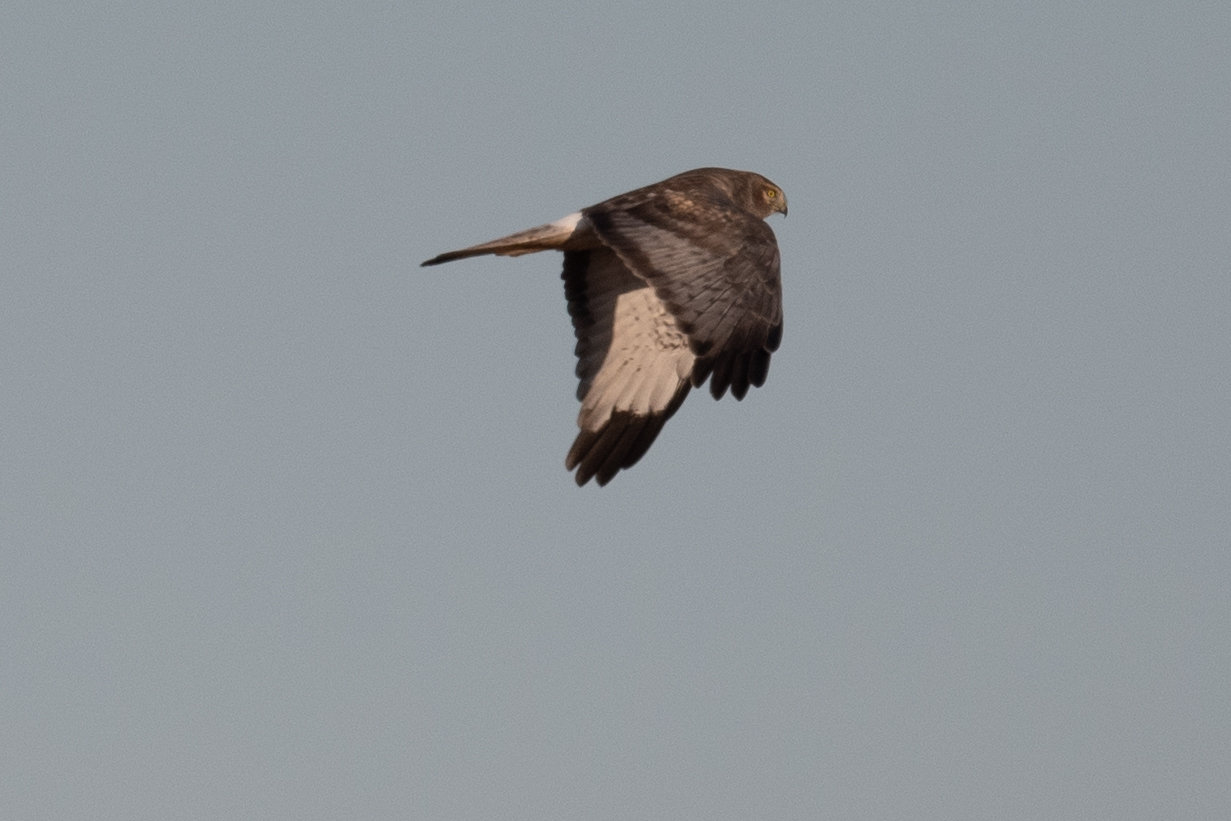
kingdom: Animalia
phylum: Chordata
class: Aves
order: Accipitriformes
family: Accipitridae
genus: Circus
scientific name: Circus cyaneus
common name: Hen harrier
